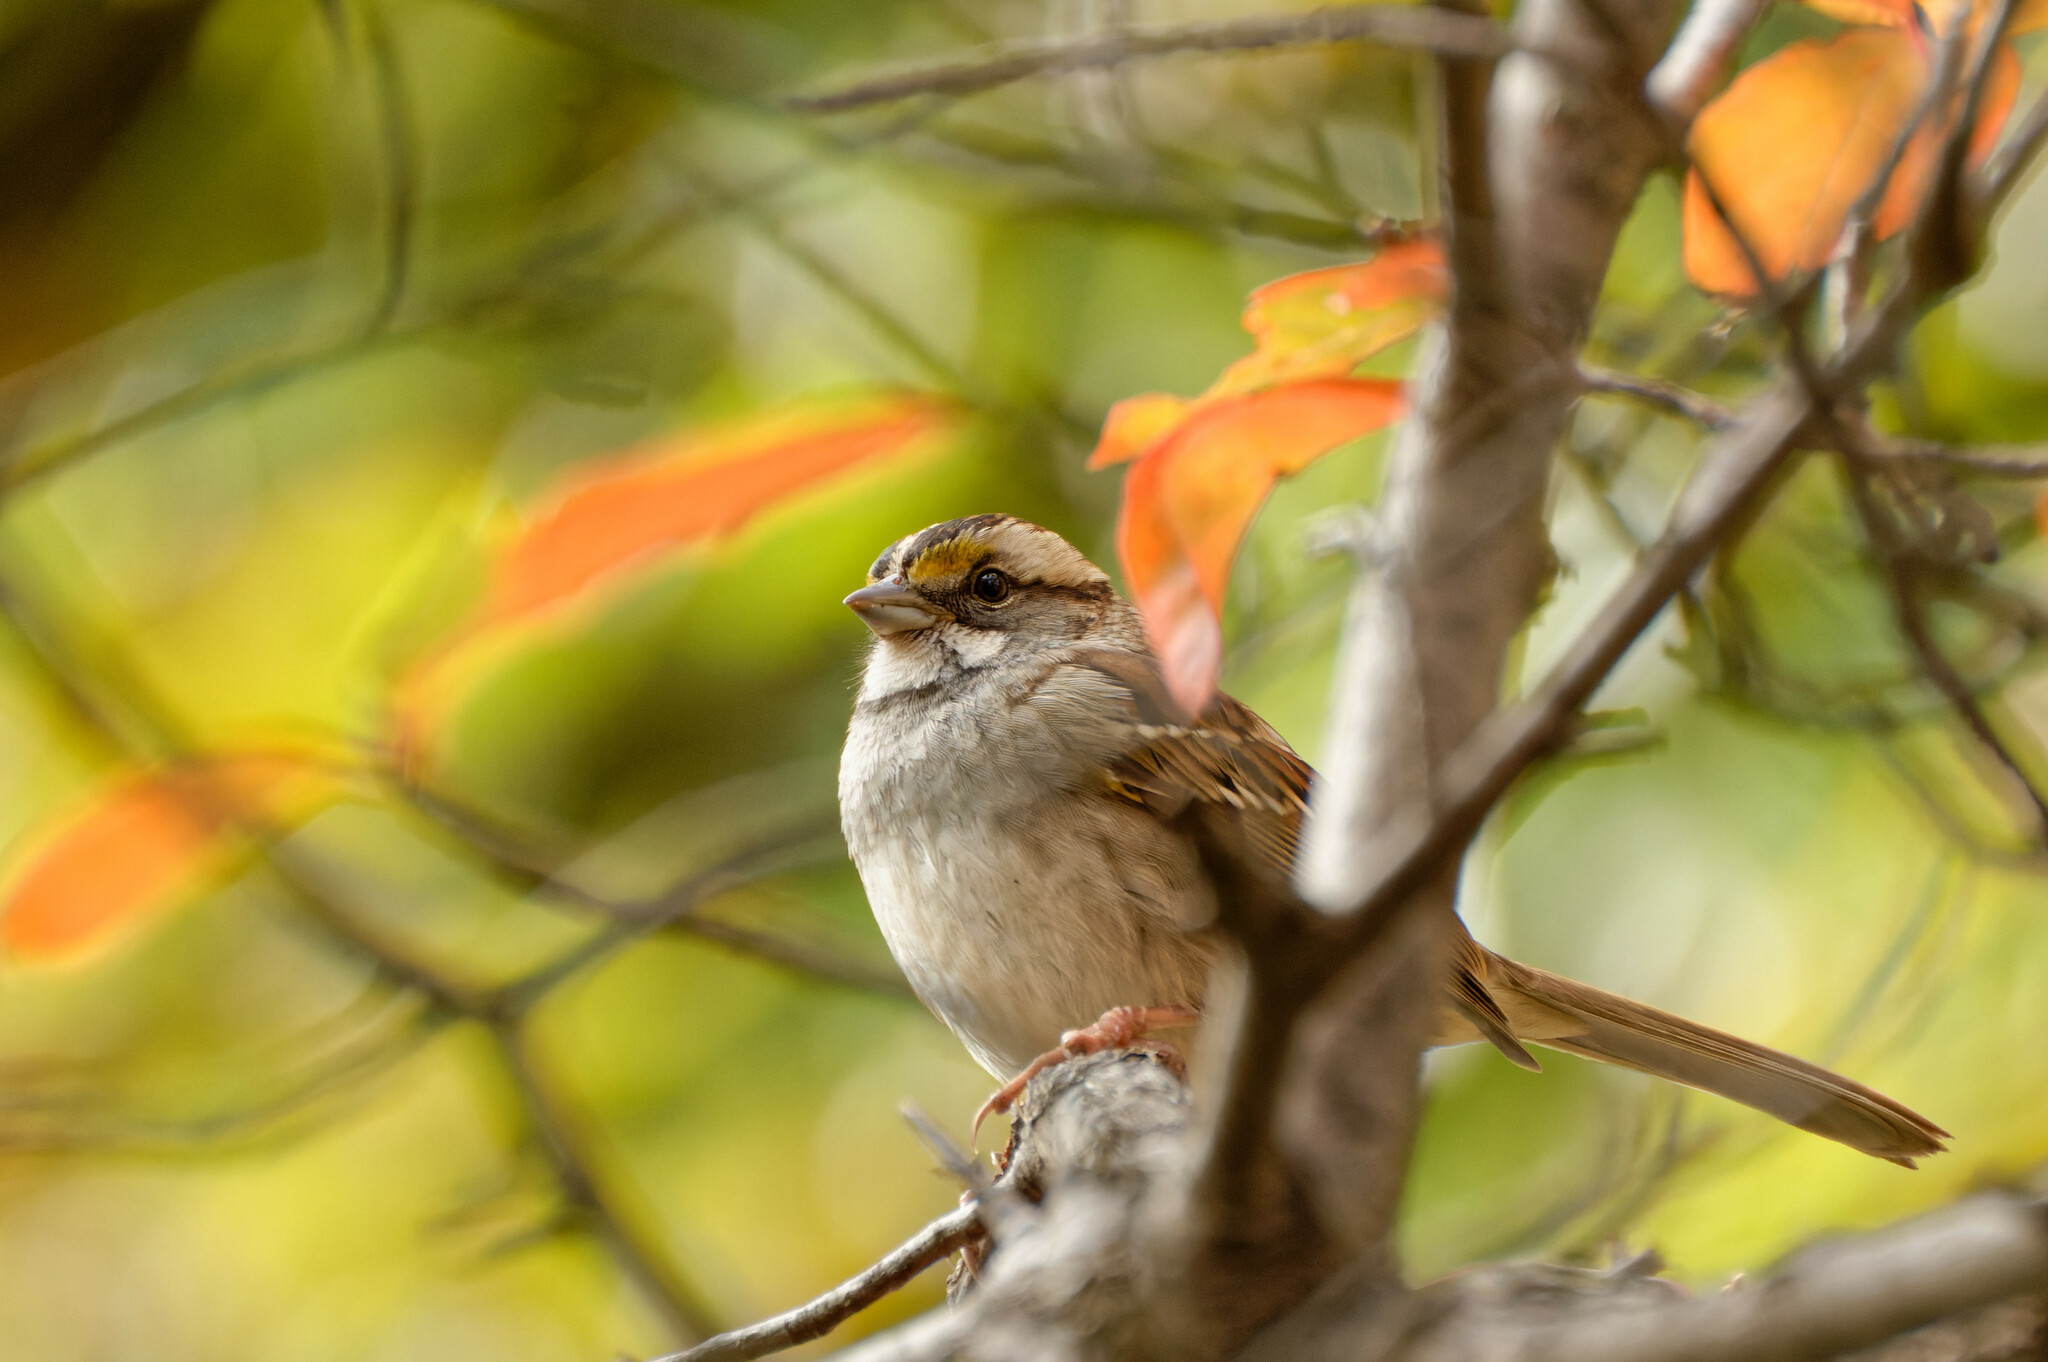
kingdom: Animalia
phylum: Chordata
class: Aves
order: Passeriformes
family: Passerellidae
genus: Zonotrichia
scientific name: Zonotrichia albicollis
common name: White-throated sparrow
